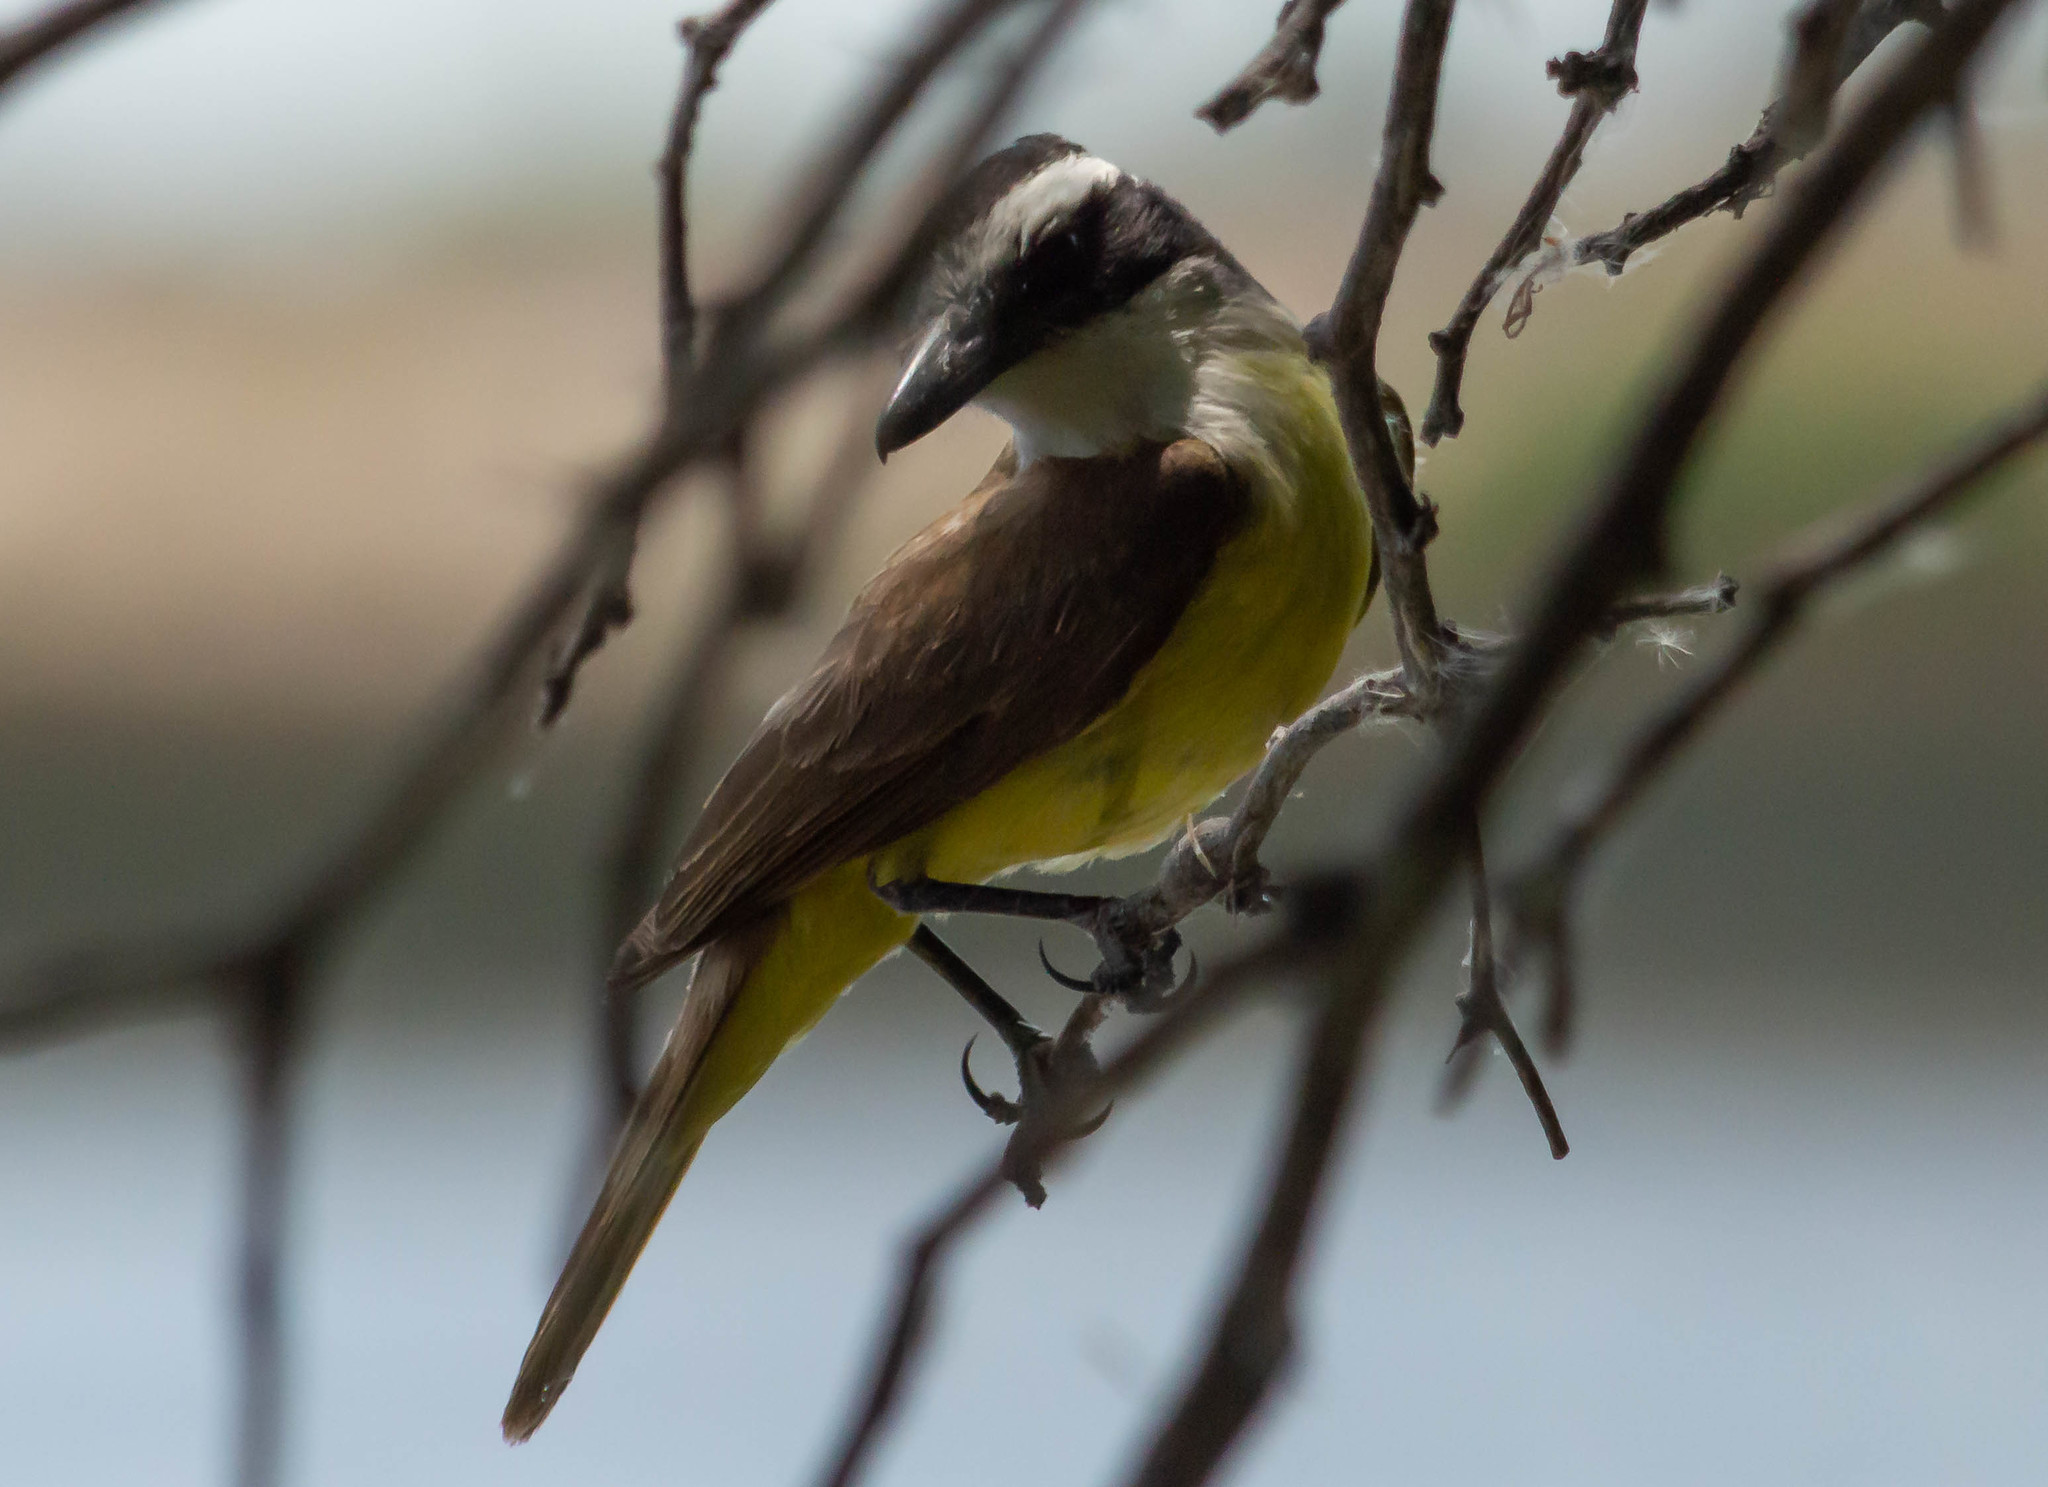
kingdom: Animalia
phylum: Chordata
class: Aves
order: Passeriformes
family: Tyrannidae
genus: Pitangus
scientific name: Pitangus sulphuratus
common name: Great kiskadee
